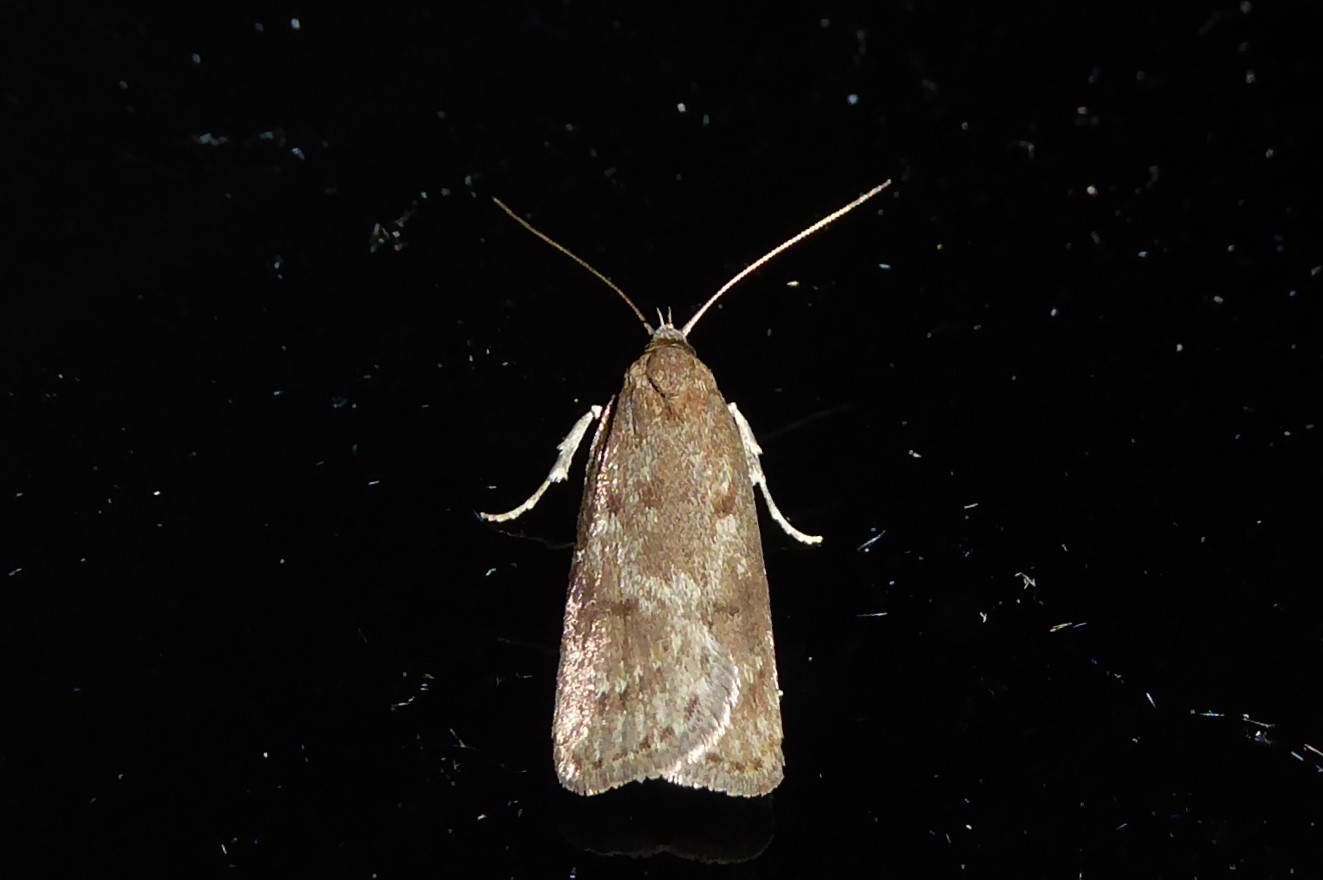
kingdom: Animalia
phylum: Arthropoda
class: Insecta
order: Lepidoptera
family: Depressariidae
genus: Phaeosaces
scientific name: Phaeosaces apocrypta
